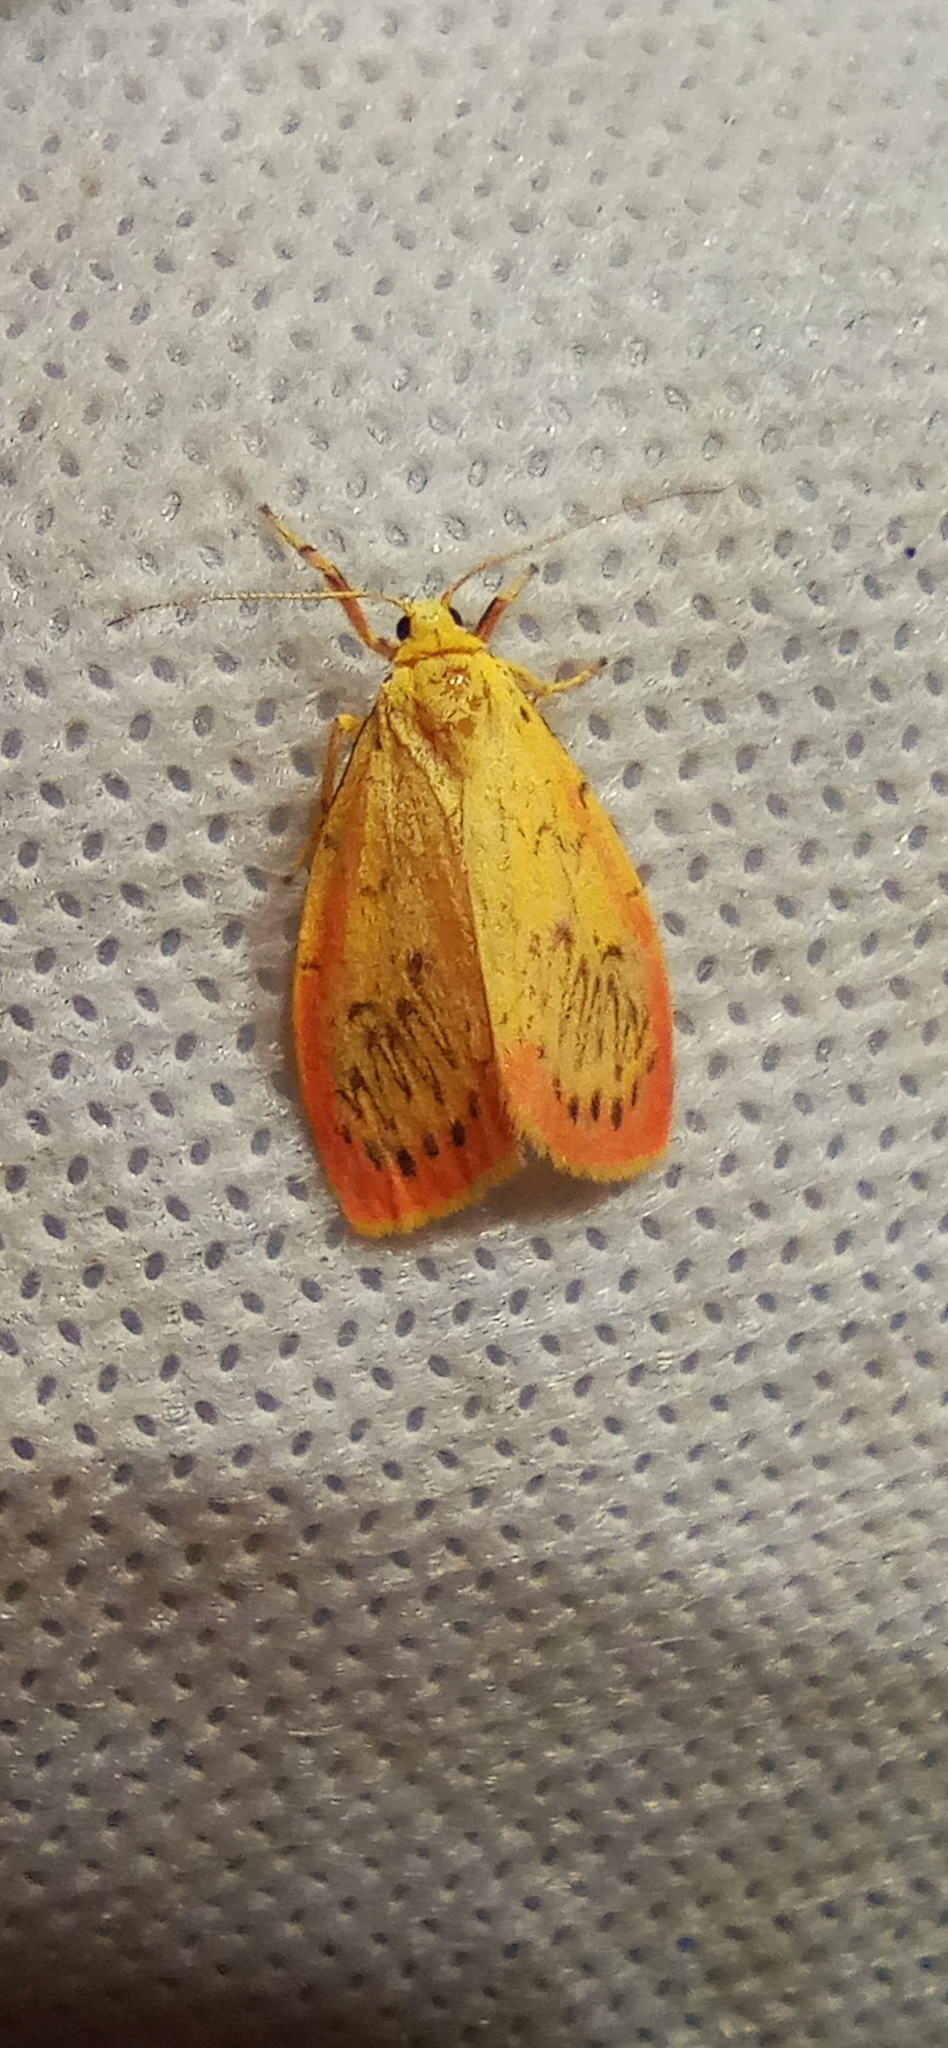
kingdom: Animalia
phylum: Arthropoda
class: Insecta
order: Lepidoptera
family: Erebidae
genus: Miltochrista
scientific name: Miltochrista miniata
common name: Rosy footman
